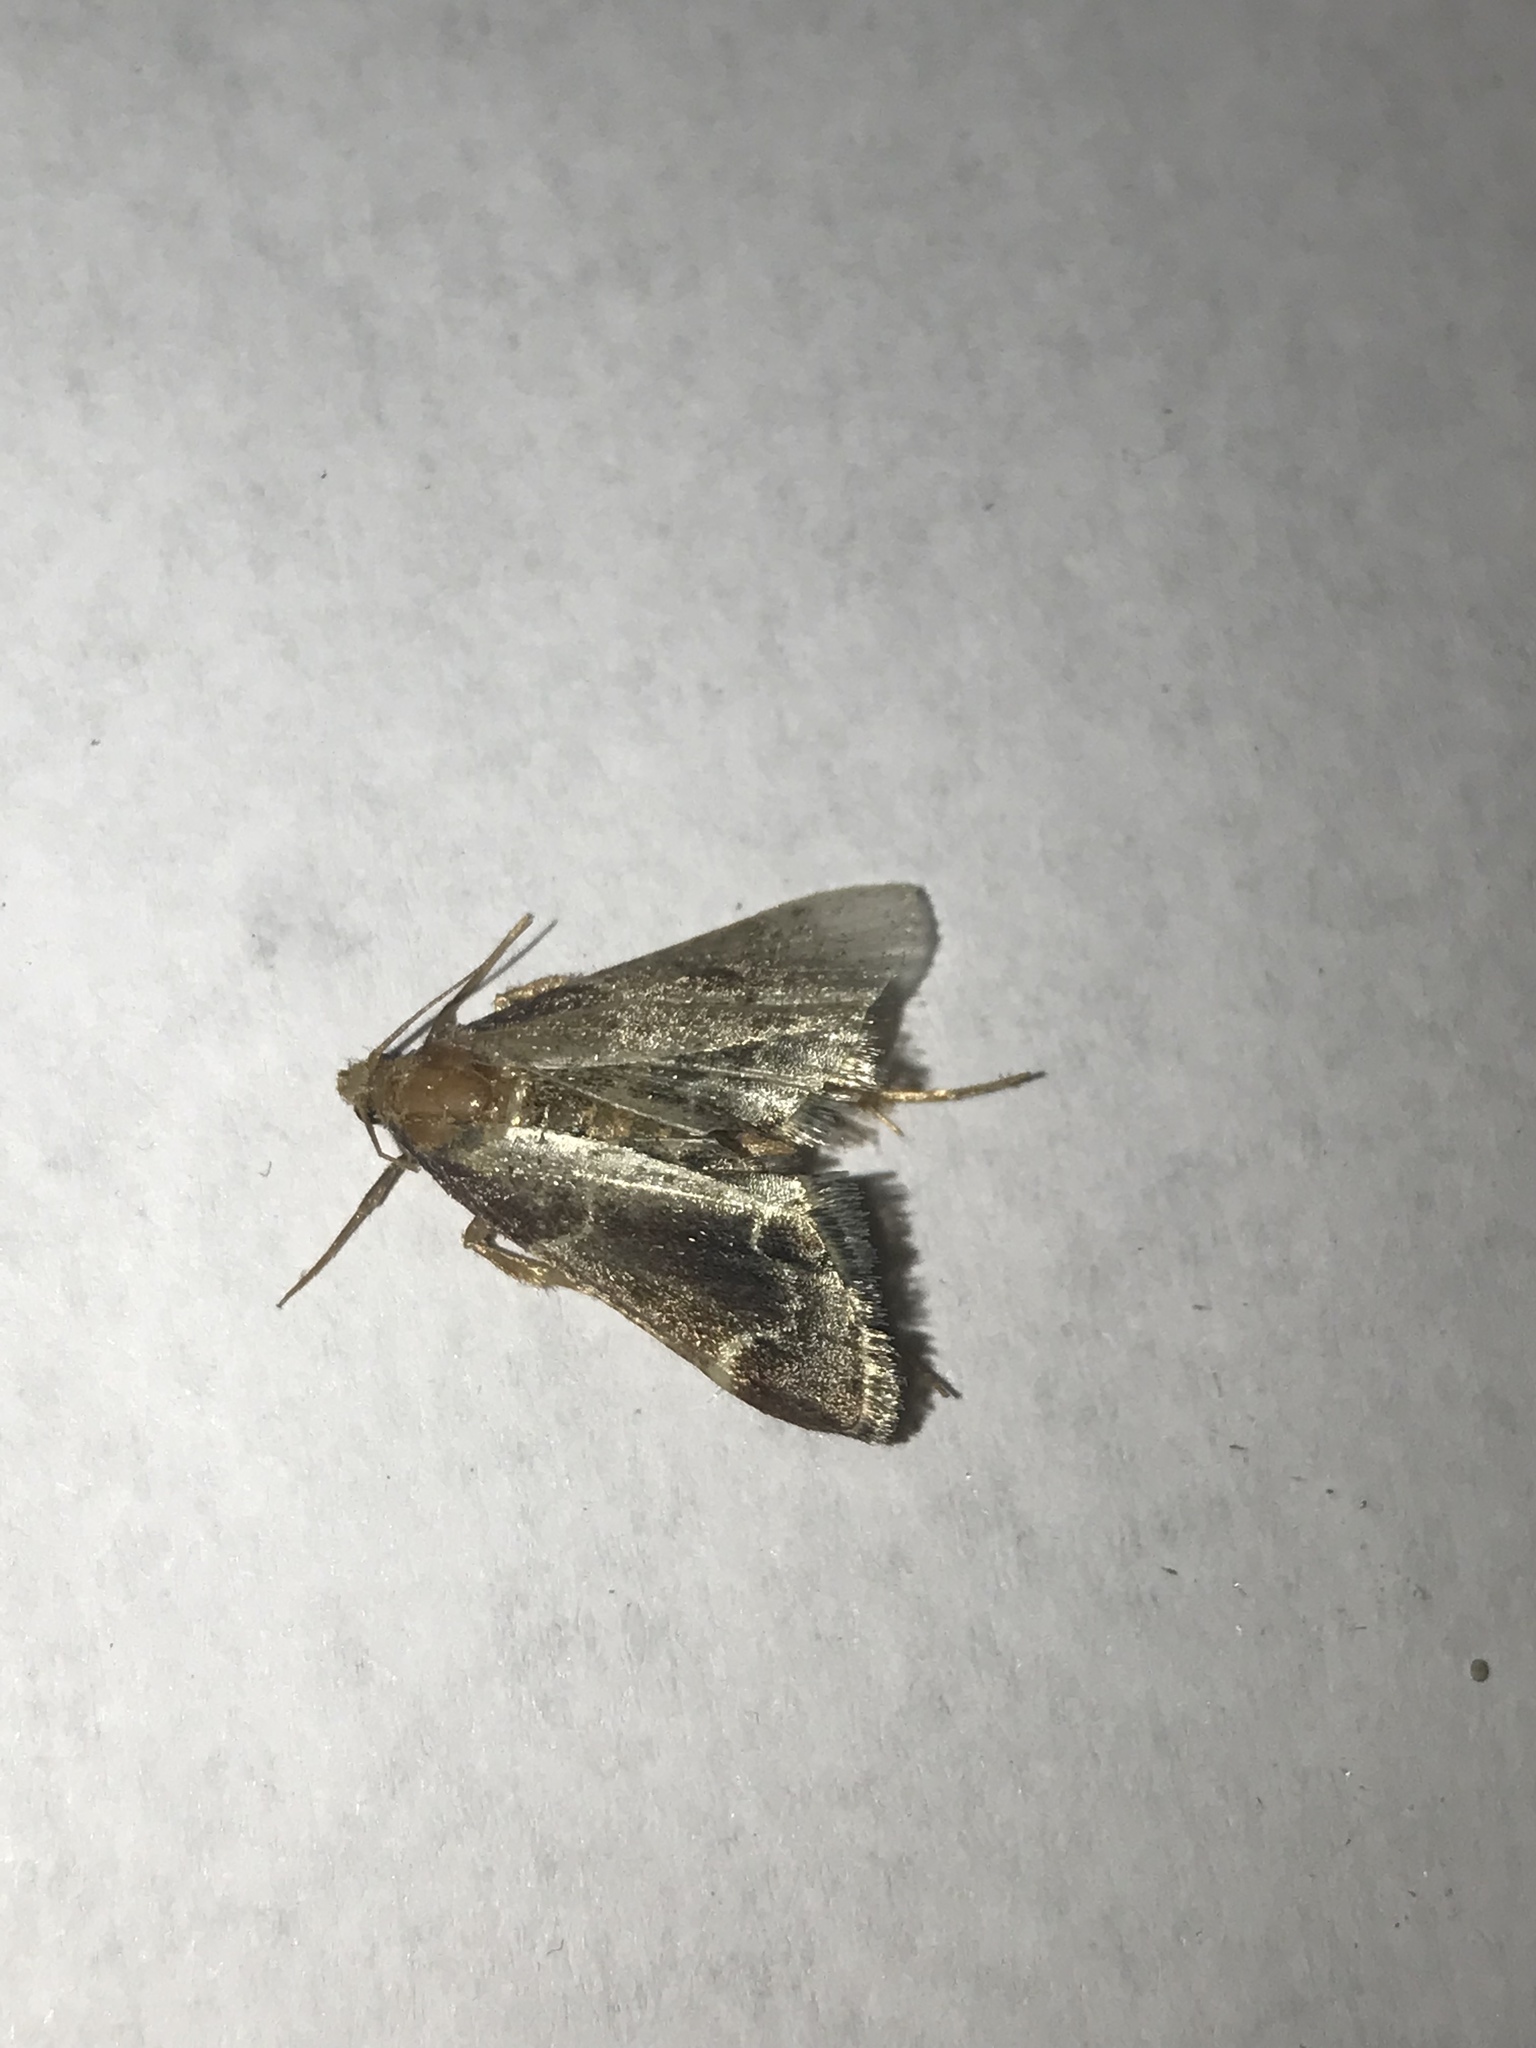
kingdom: Animalia
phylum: Arthropoda
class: Insecta
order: Lepidoptera
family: Pyralidae
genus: Pyralis
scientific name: Pyralis farinalis
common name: Meal moth
